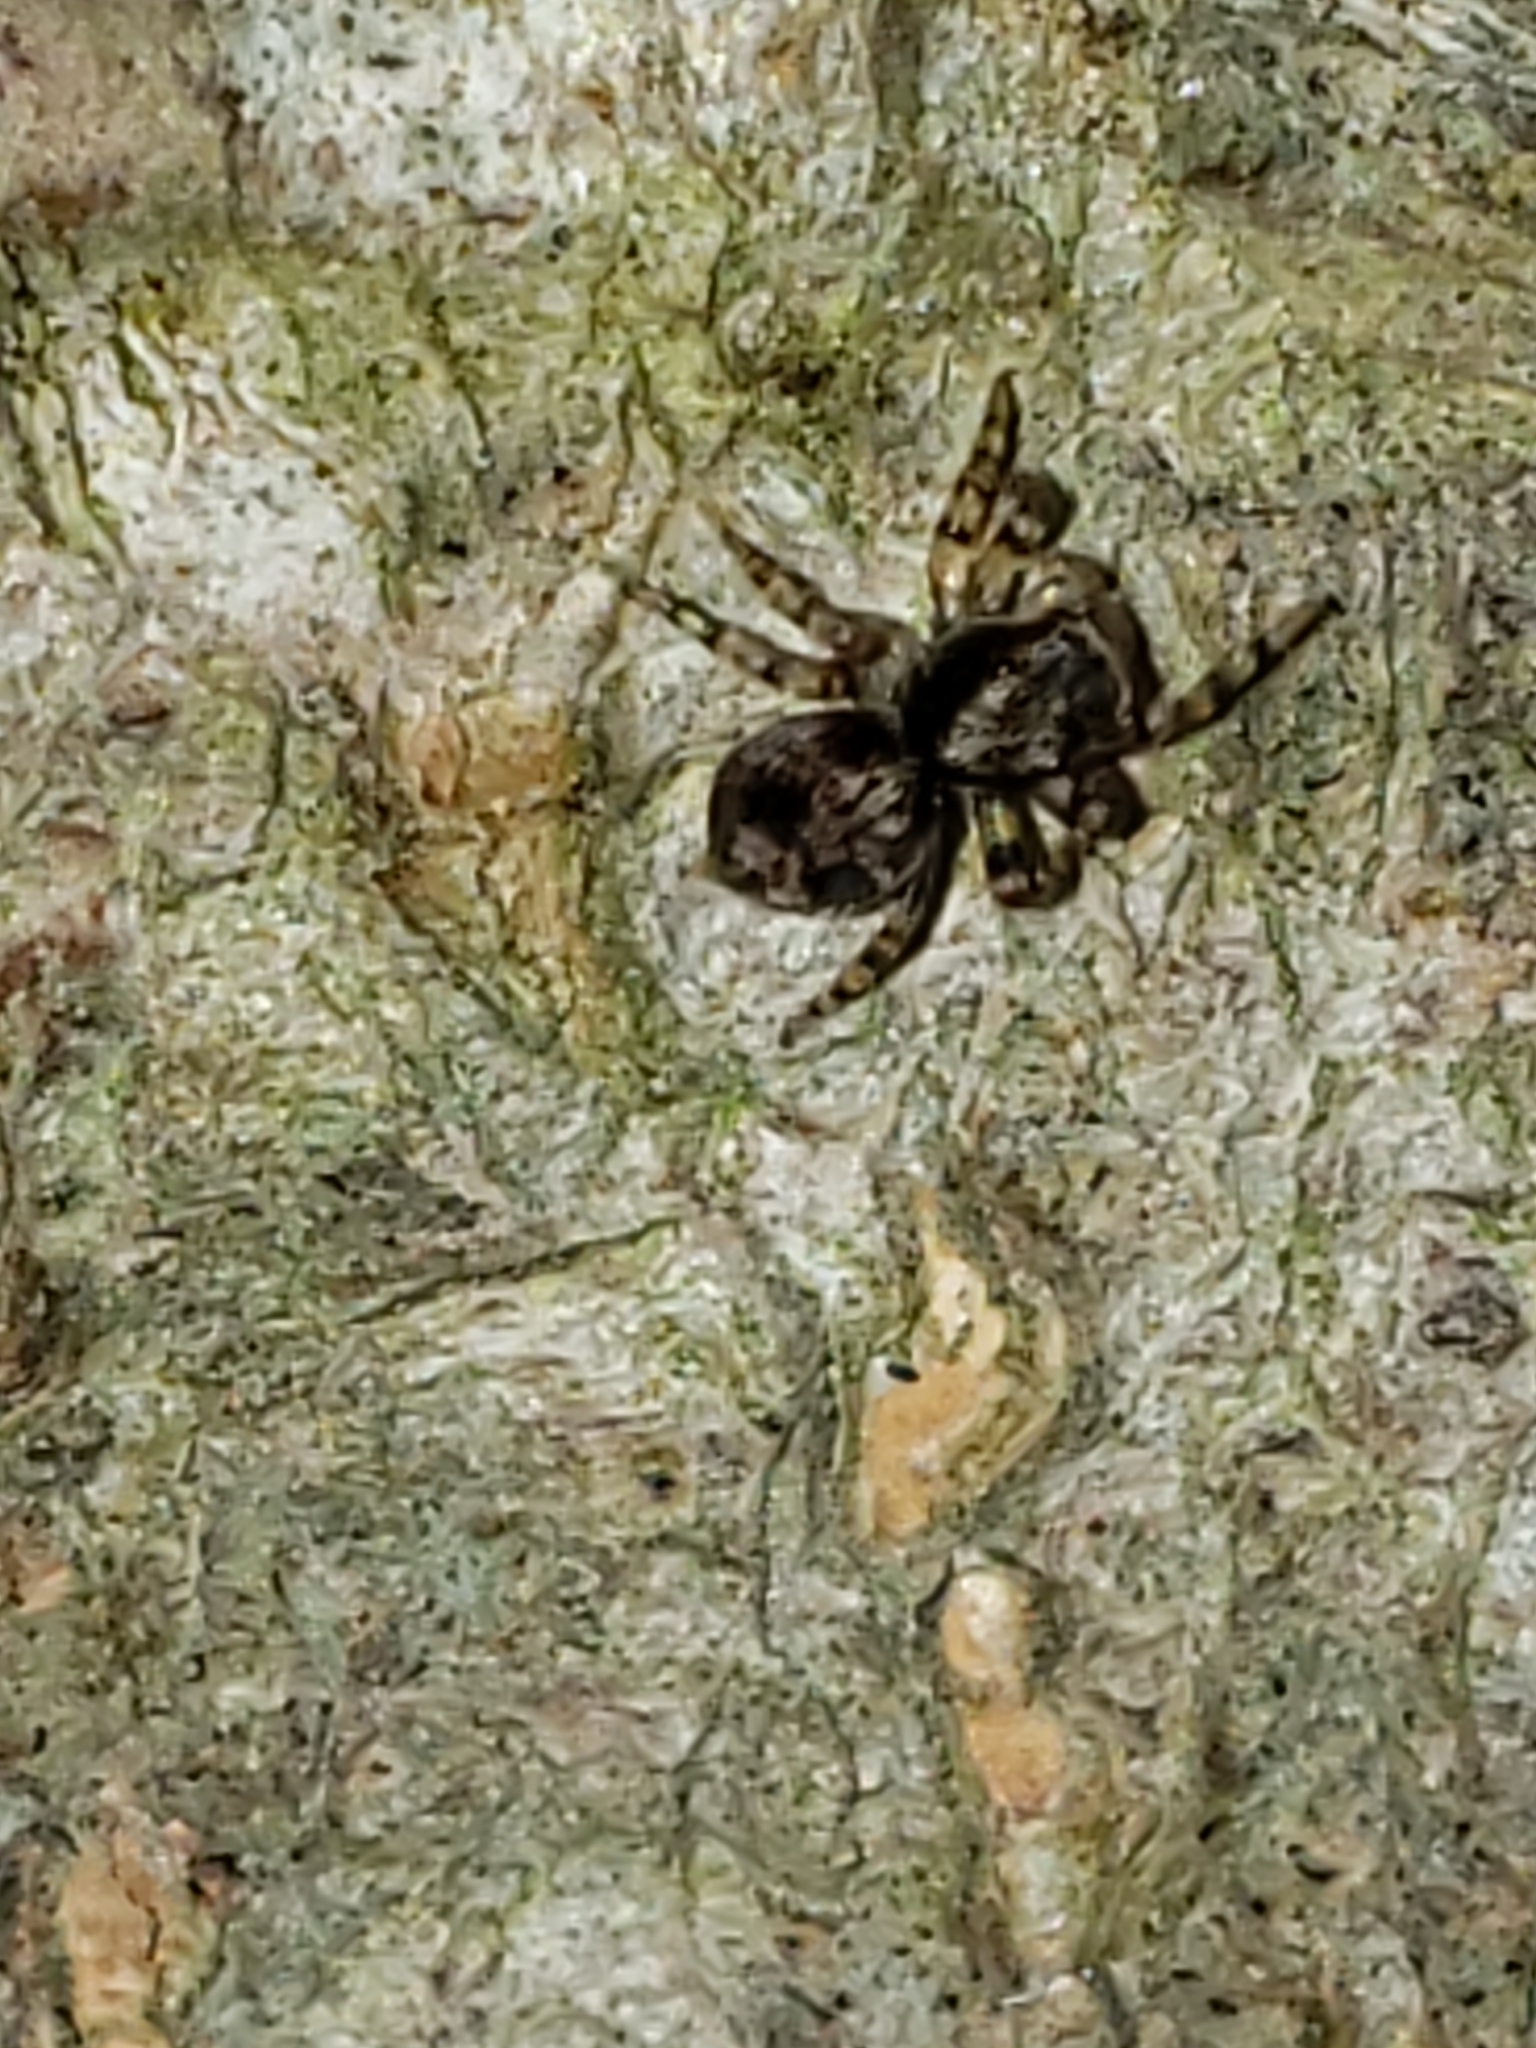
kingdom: Animalia
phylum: Arthropoda
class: Arachnida
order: Araneae
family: Salticidae
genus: Naphrys
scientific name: Naphrys pulex
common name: Flea jumping spider
